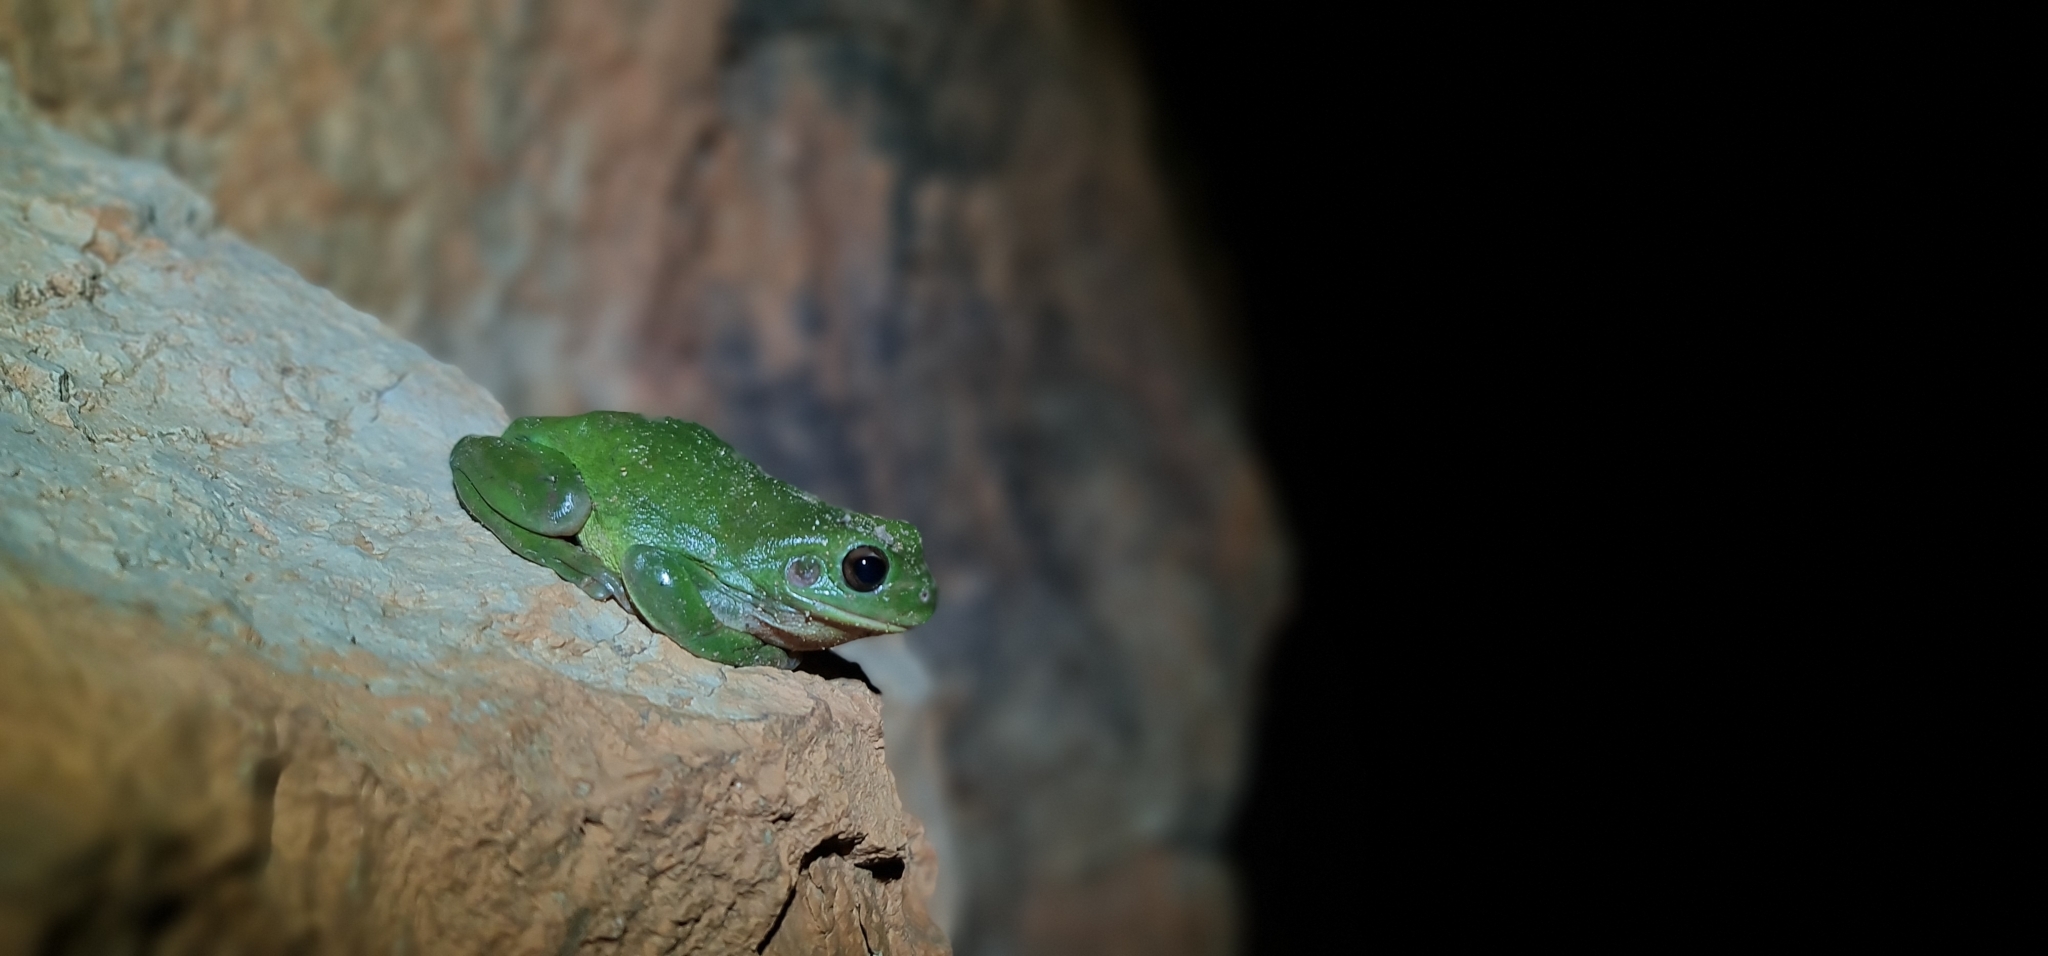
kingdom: Animalia
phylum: Chordata
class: Amphibia
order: Anura
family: Pelodryadidae
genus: Ranoidea
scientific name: Ranoidea caerulea
